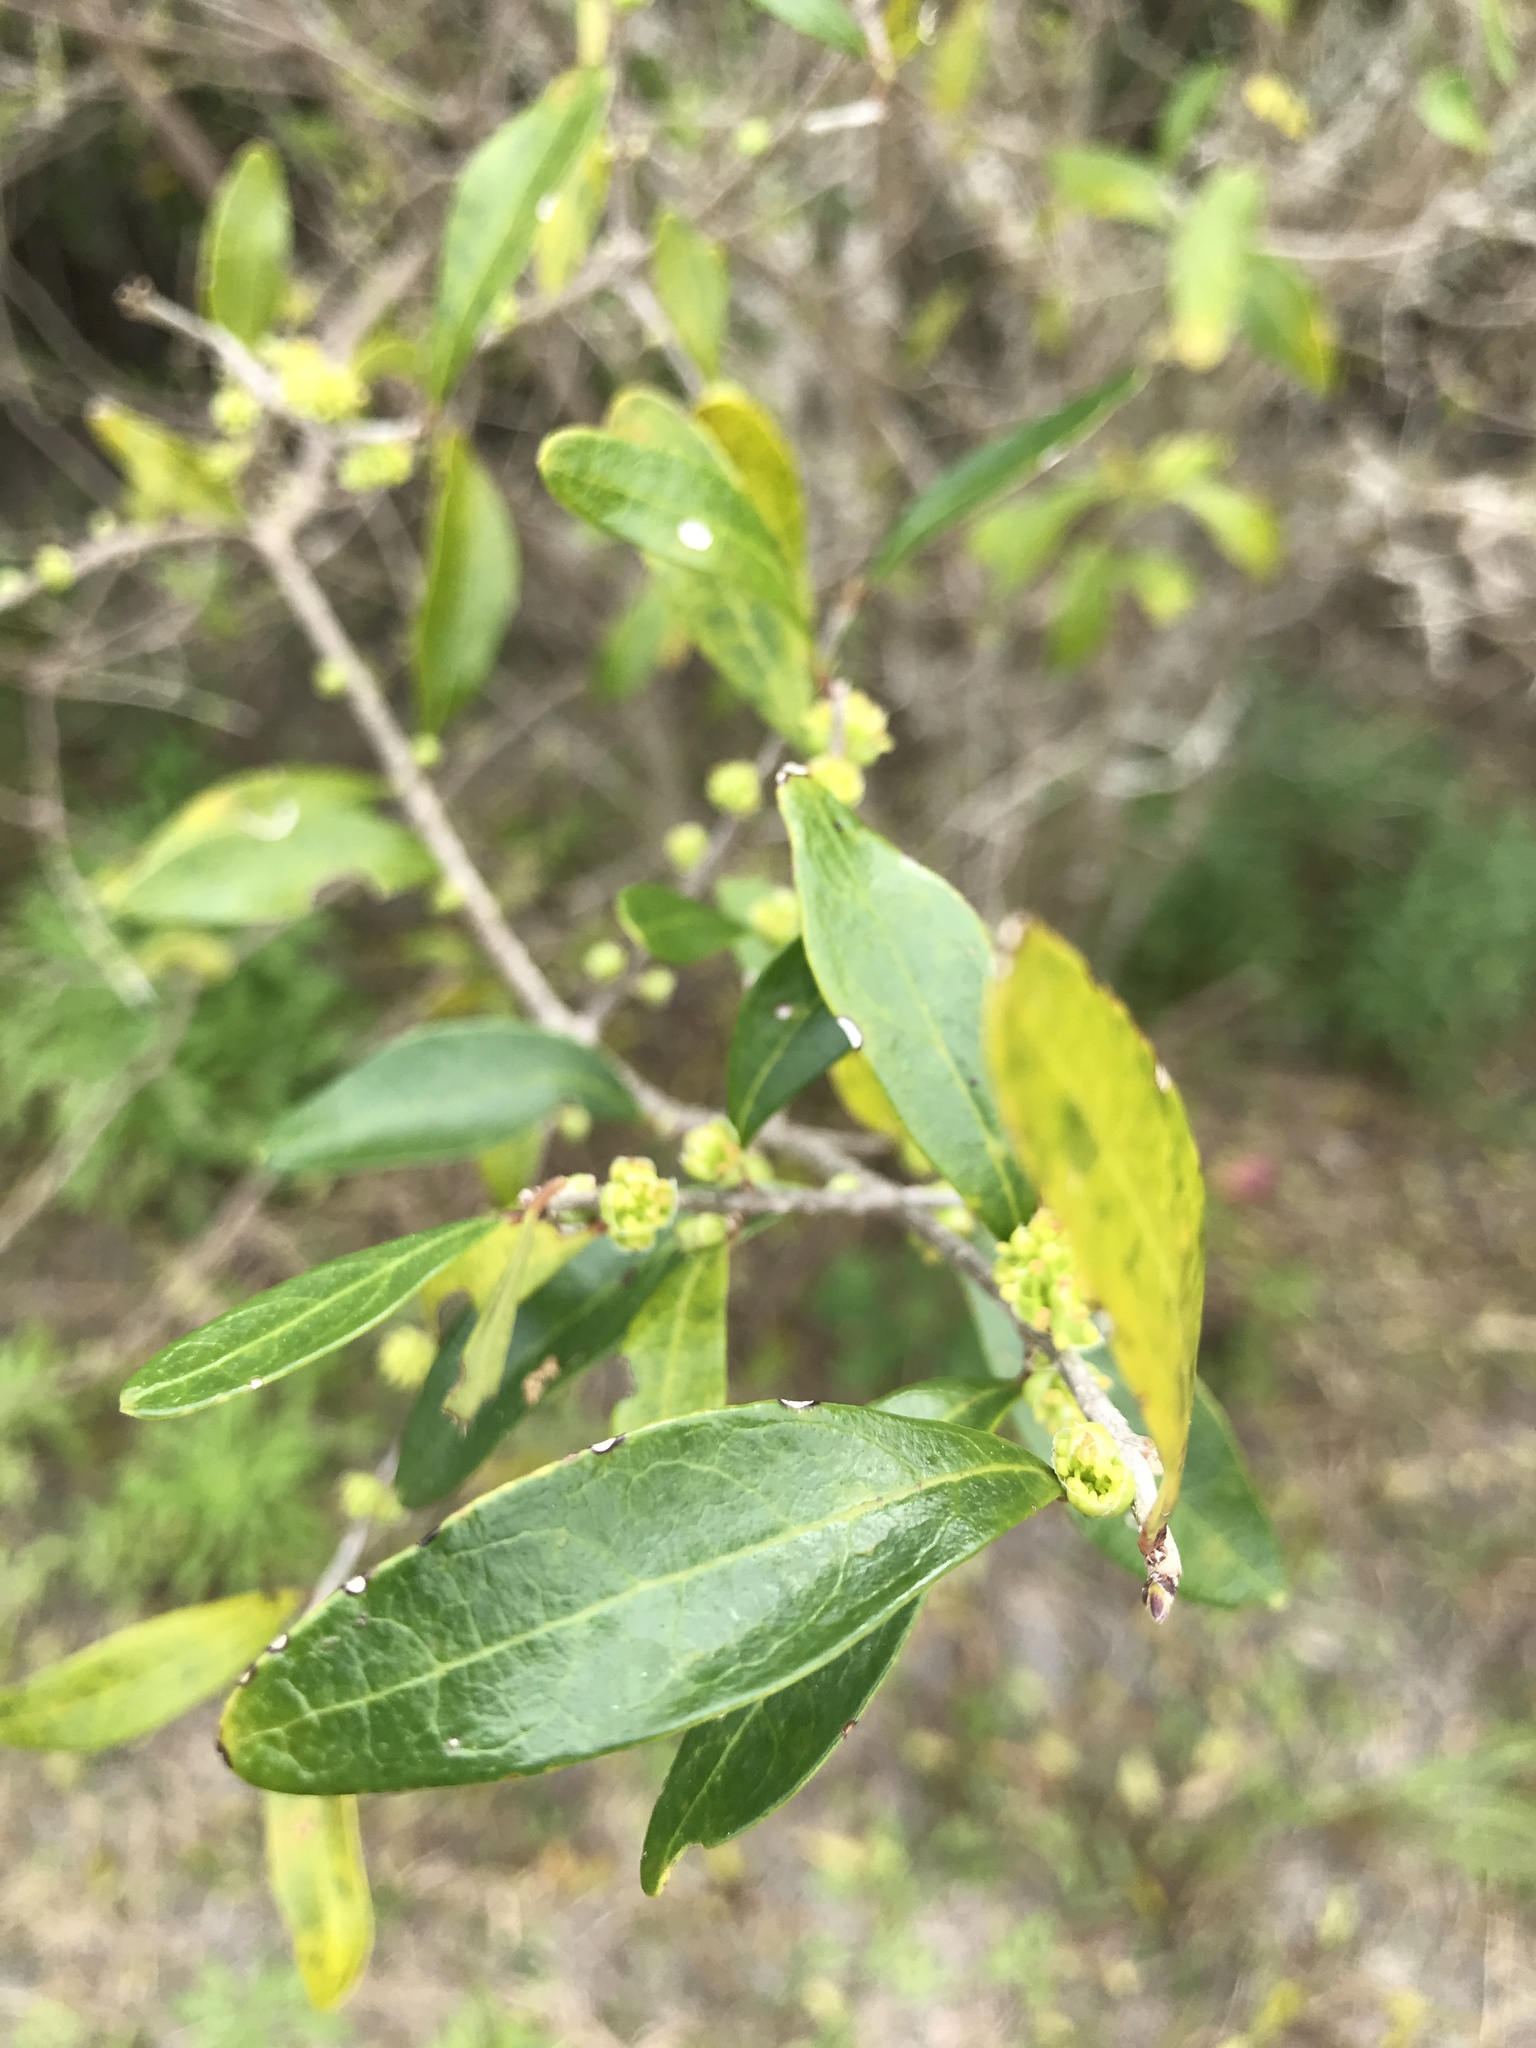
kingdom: Plantae
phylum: Tracheophyta
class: Magnoliopsida
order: Lamiales
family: Oleaceae
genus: Forestiera
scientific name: Forestiera segregata
